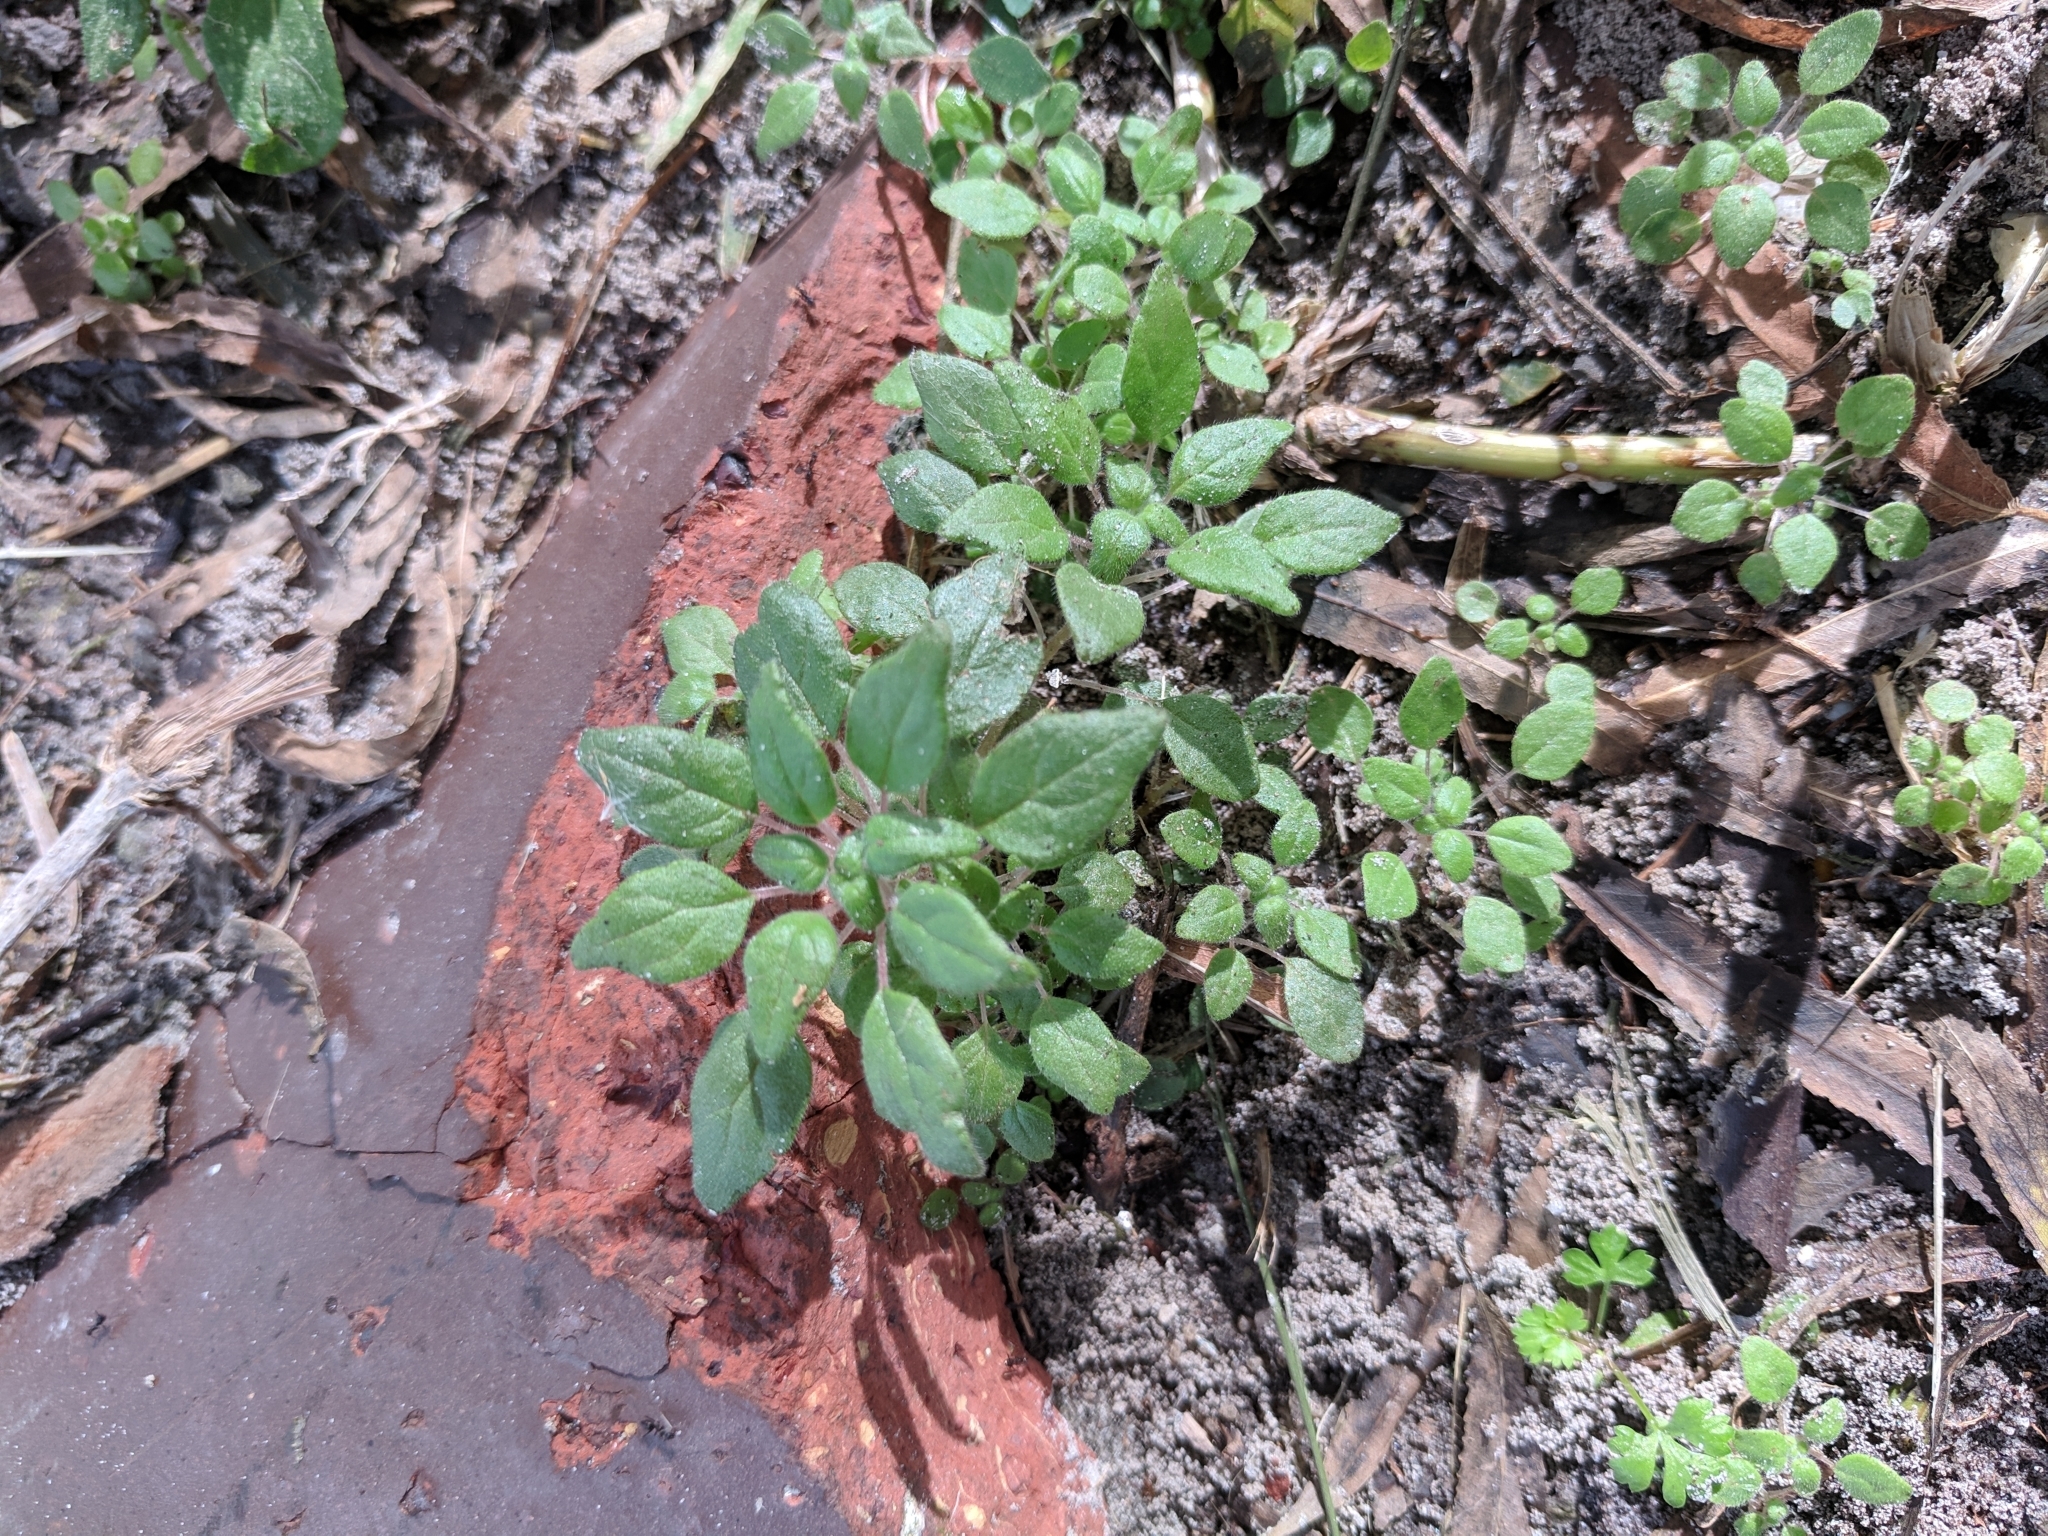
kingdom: Plantae
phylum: Tracheophyta
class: Magnoliopsida
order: Rosales
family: Urticaceae
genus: Parietaria
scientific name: Parietaria pensylvanica
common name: Pennsylvania pellitory
